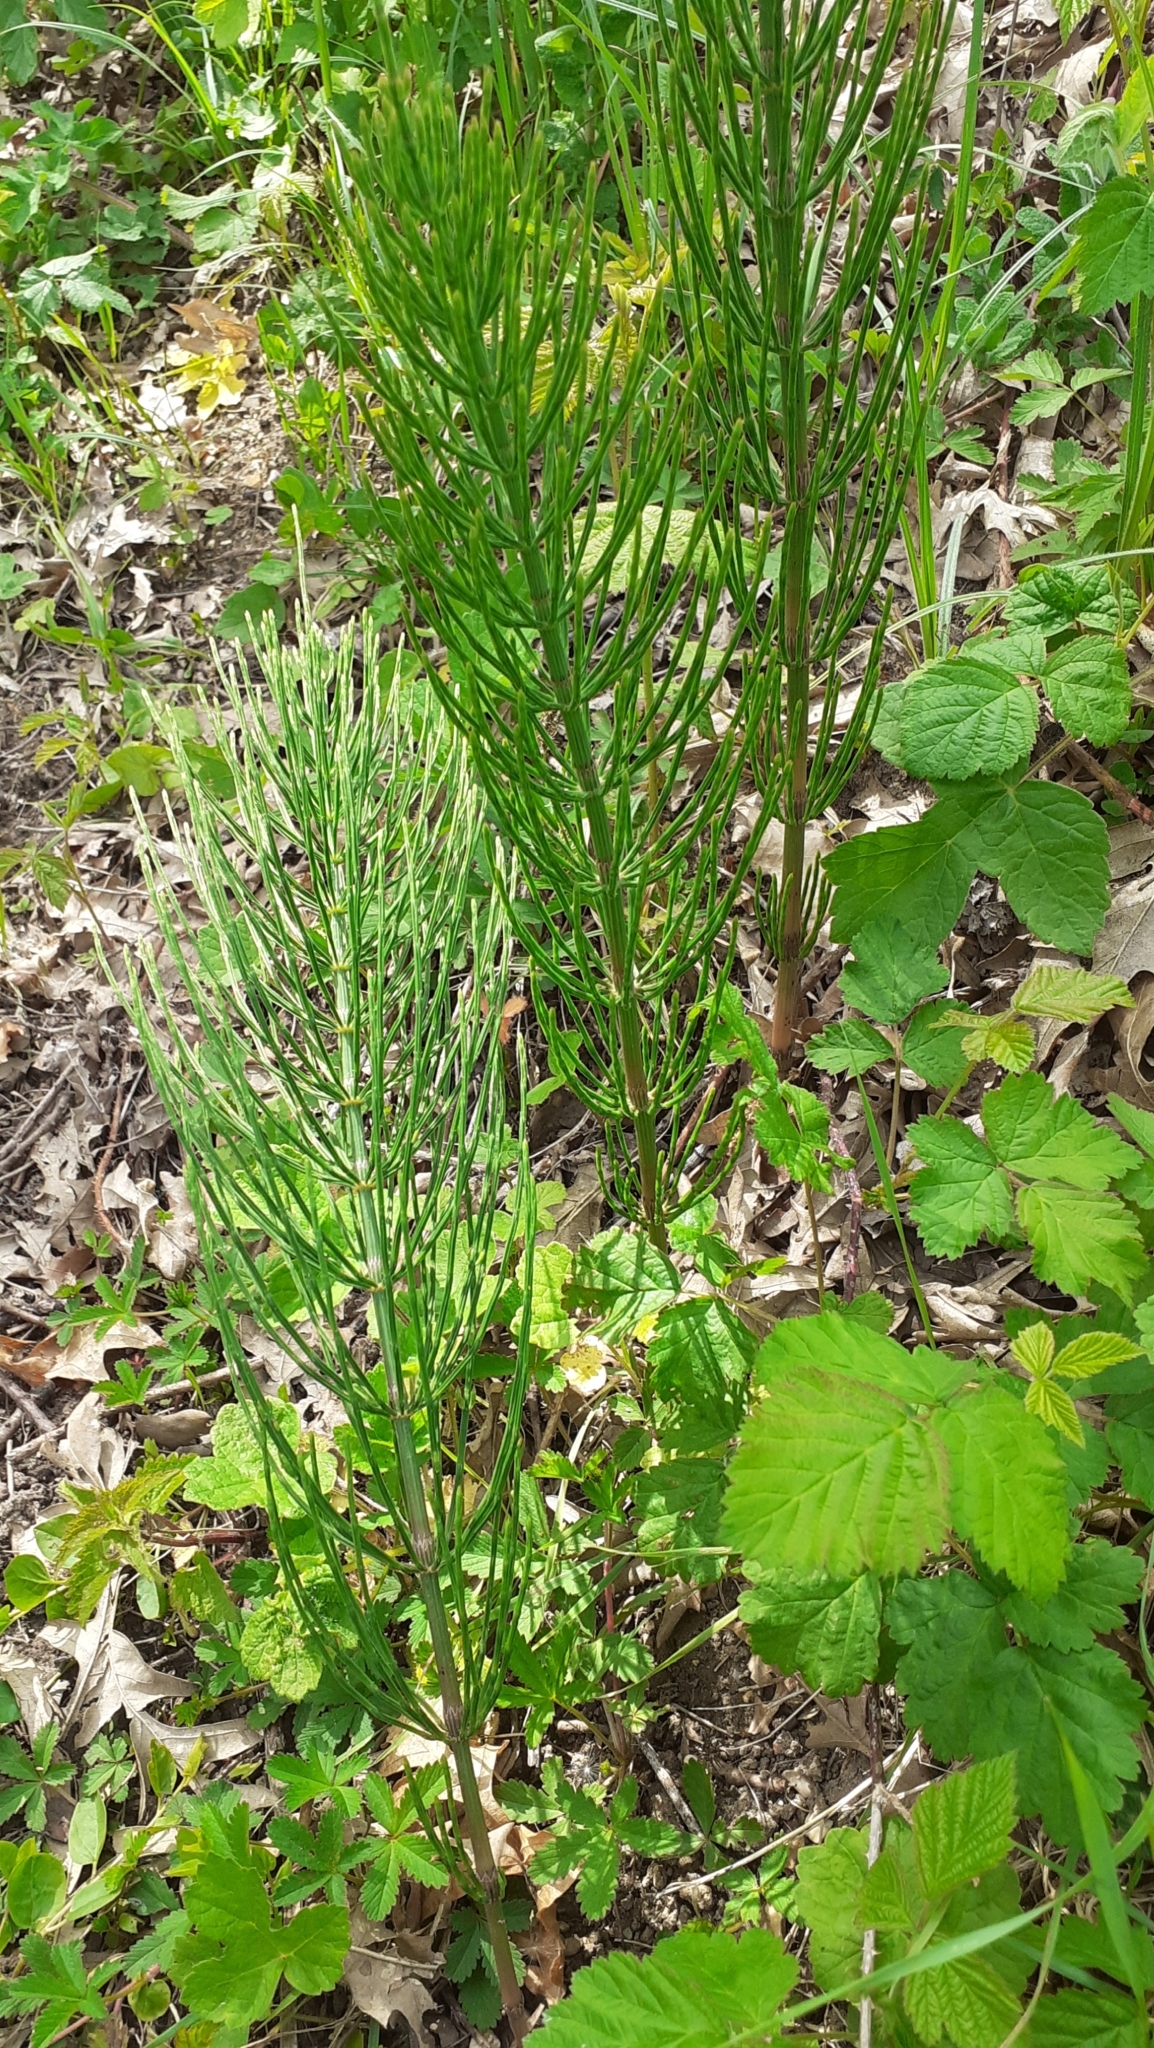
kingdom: Plantae
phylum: Tracheophyta
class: Polypodiopsida
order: Equisetales
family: Equisetaceae
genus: Equisetum
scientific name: Equisetum arvense
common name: Field horsetail
